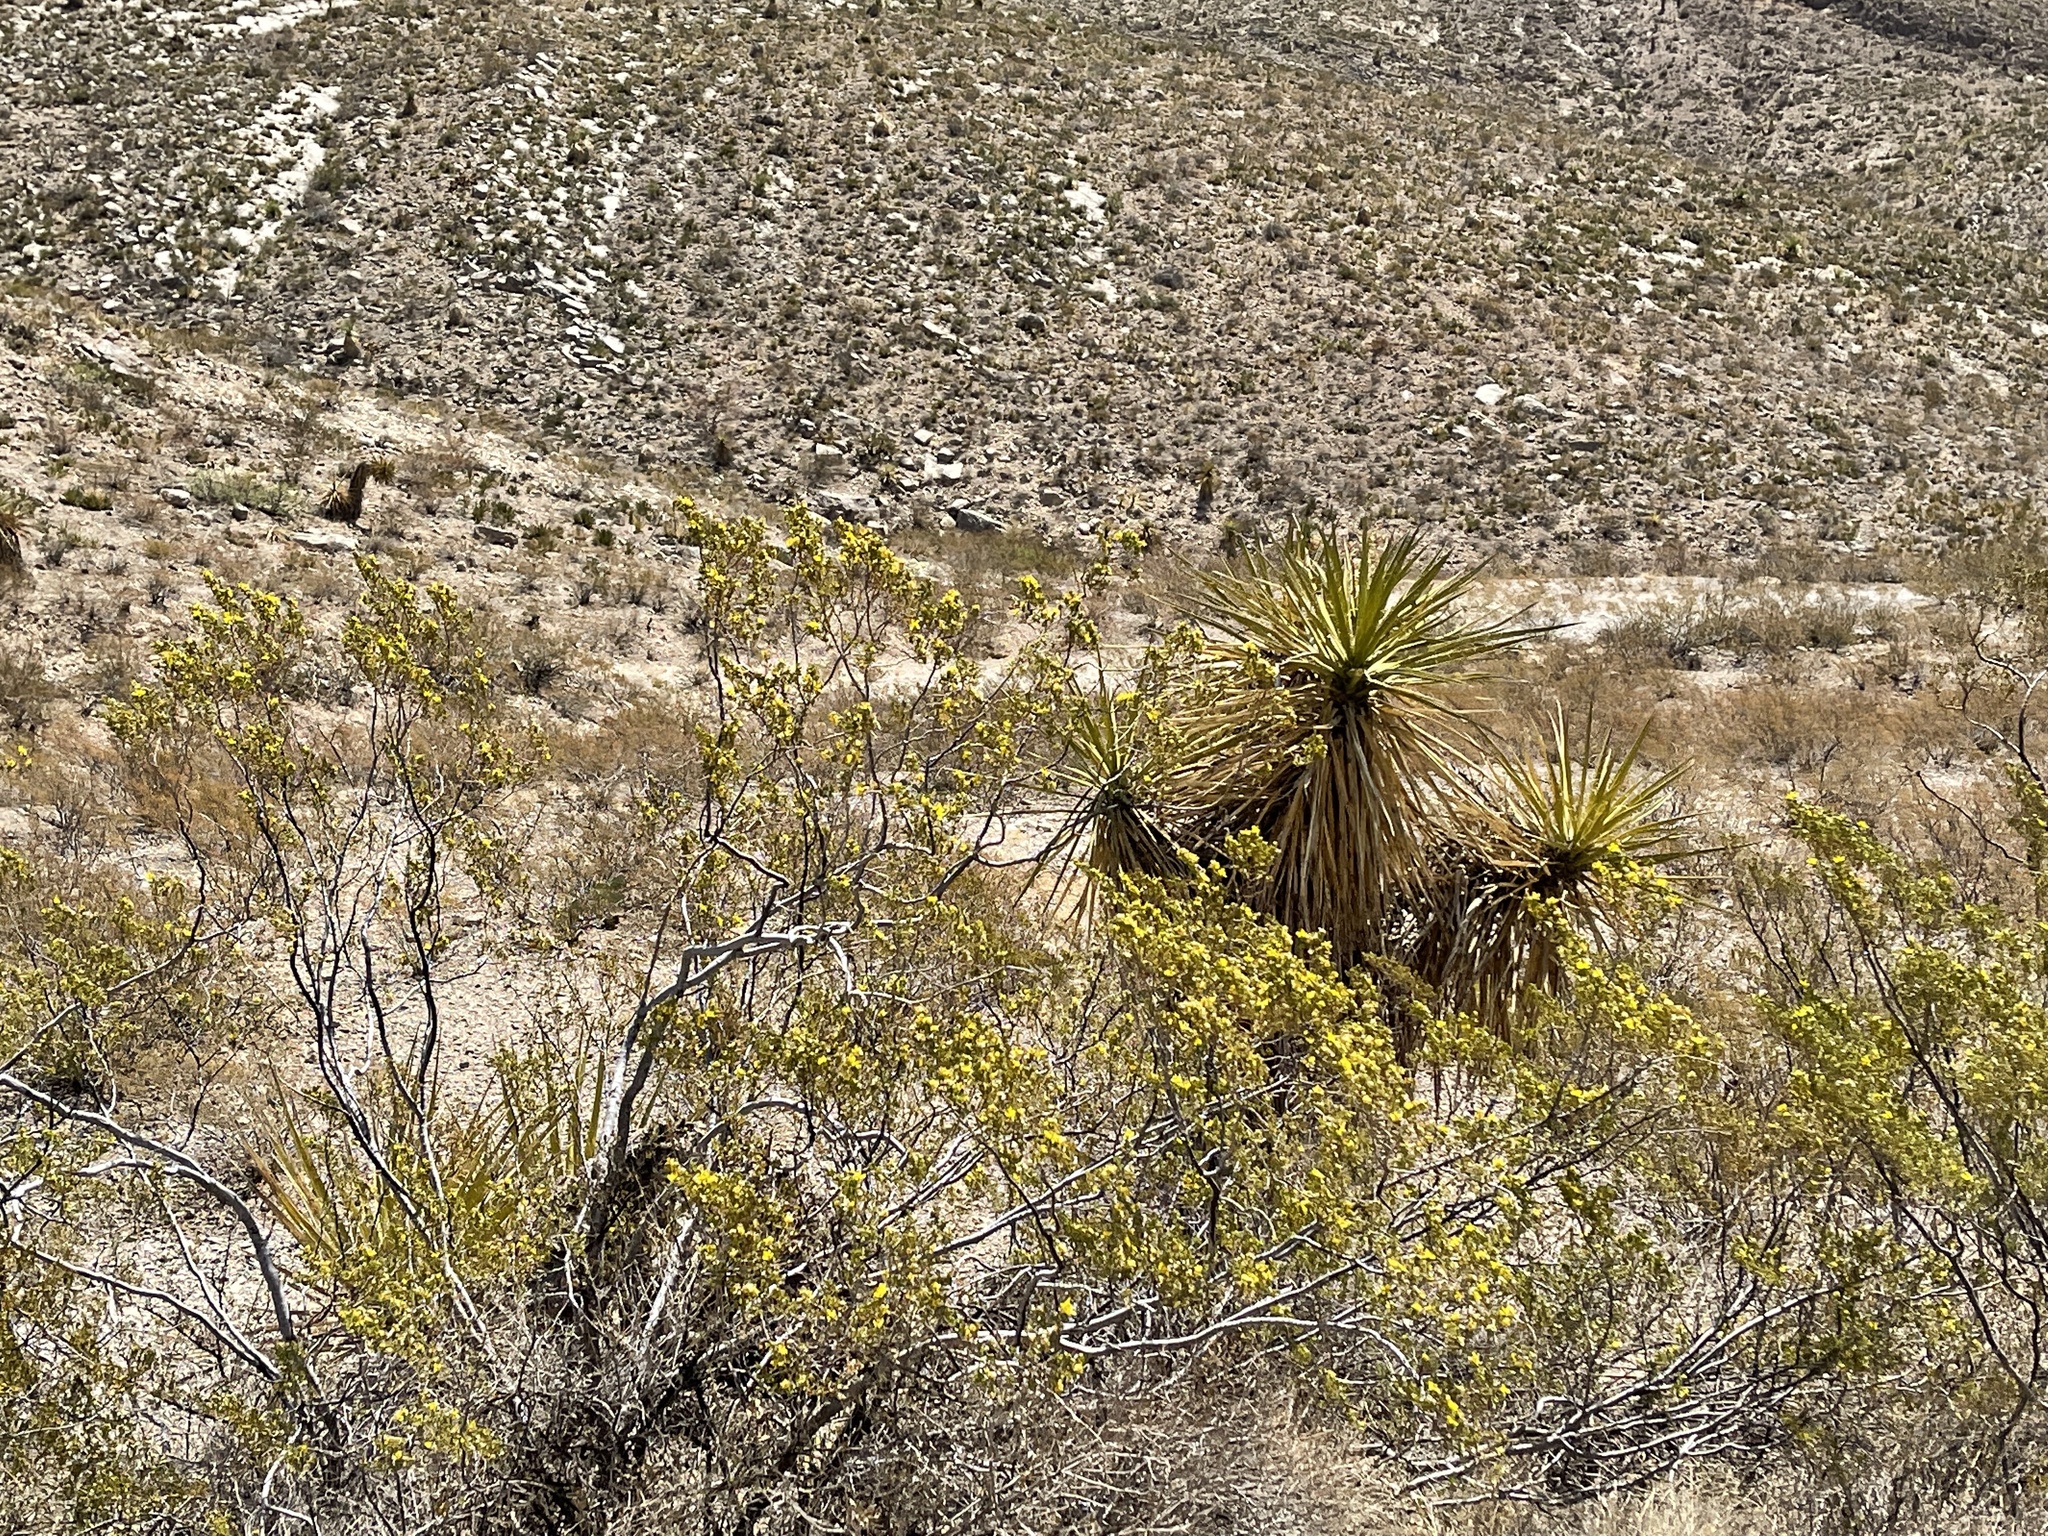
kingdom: Plantae
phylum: Tracheophyta
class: Magnoliopsida
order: Zygophyllales
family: Zygophyllaceae
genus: Larrea
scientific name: Larrea tridentata
